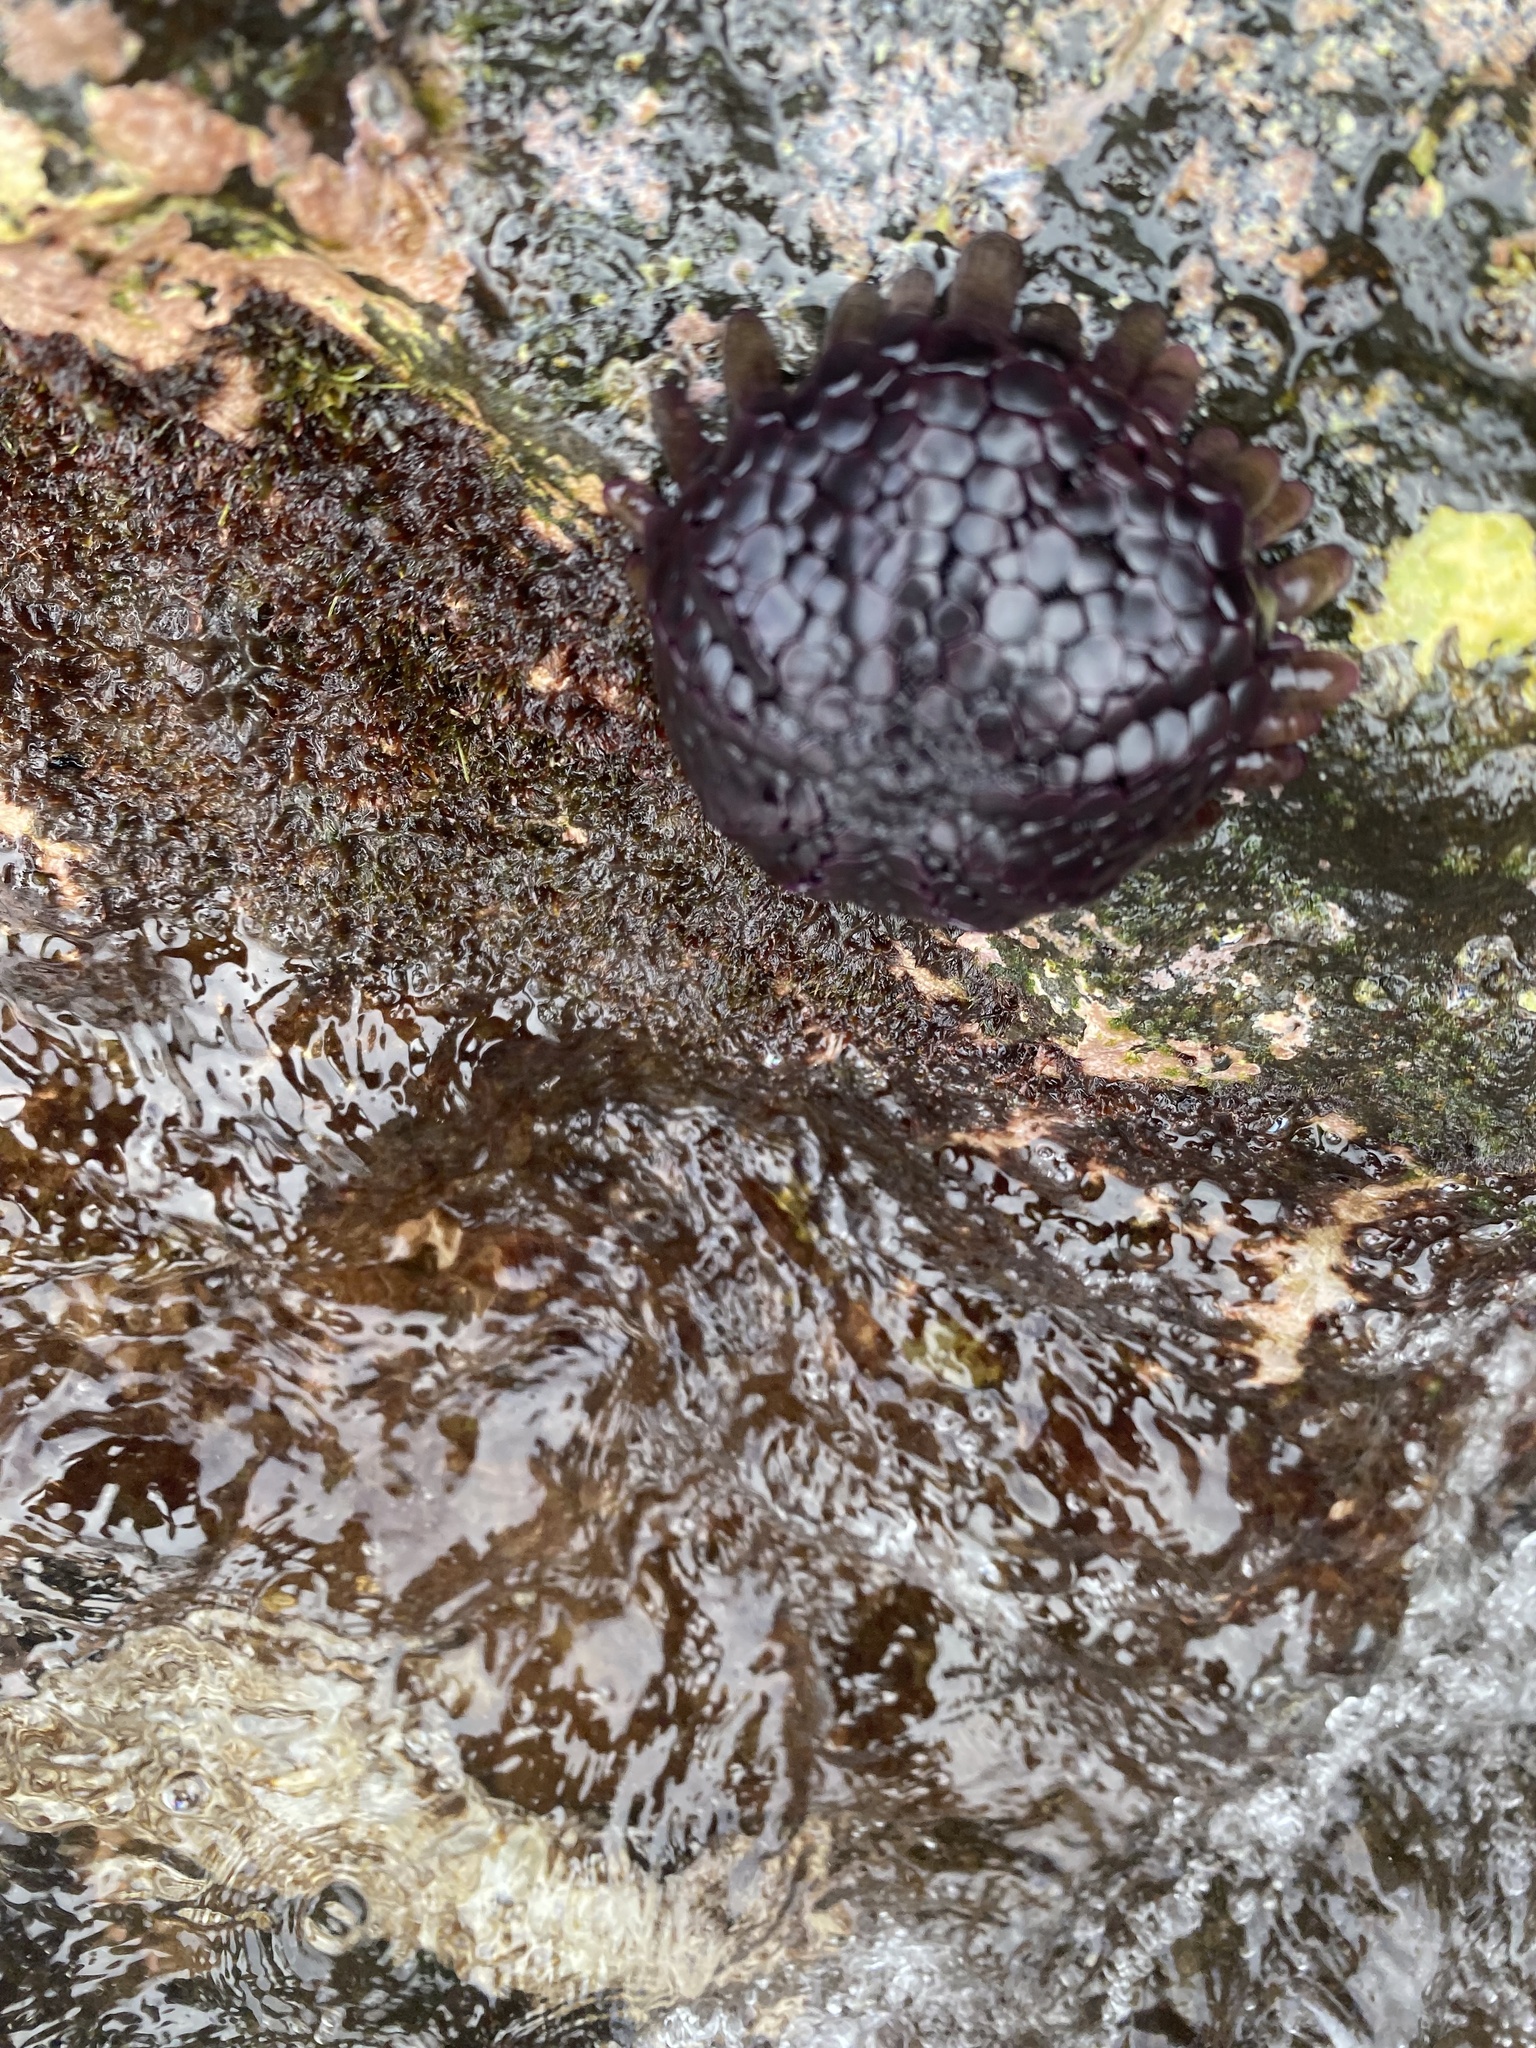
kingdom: Animalia
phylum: Echinodermata
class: Echinoidea
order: Camarodonta
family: Echinometridae
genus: Colobocentrotus
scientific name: Colobocentrotus atratus
